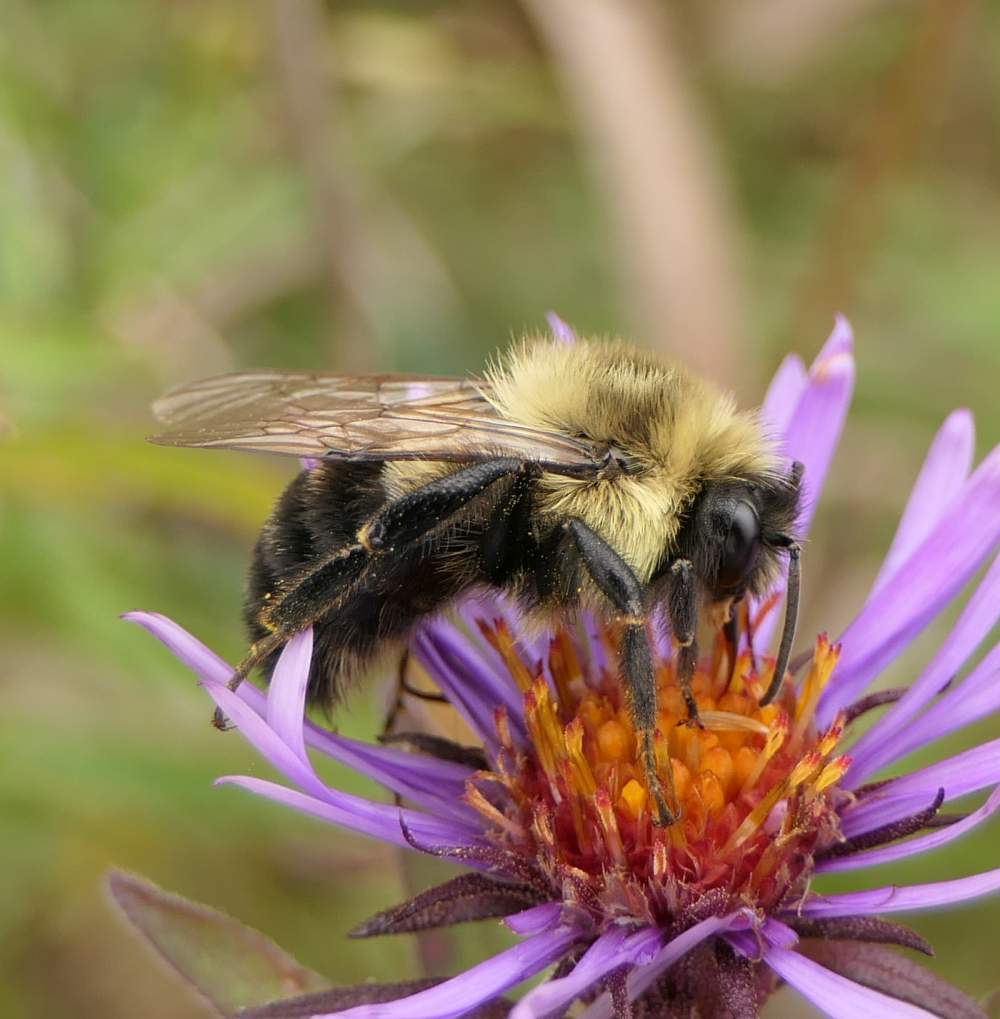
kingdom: Animalia
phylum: Arthropoda
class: Insecta
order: Hymenoptera
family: Apidae
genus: Bombus
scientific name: Bombus impatiens
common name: Common eastern bumble bee
